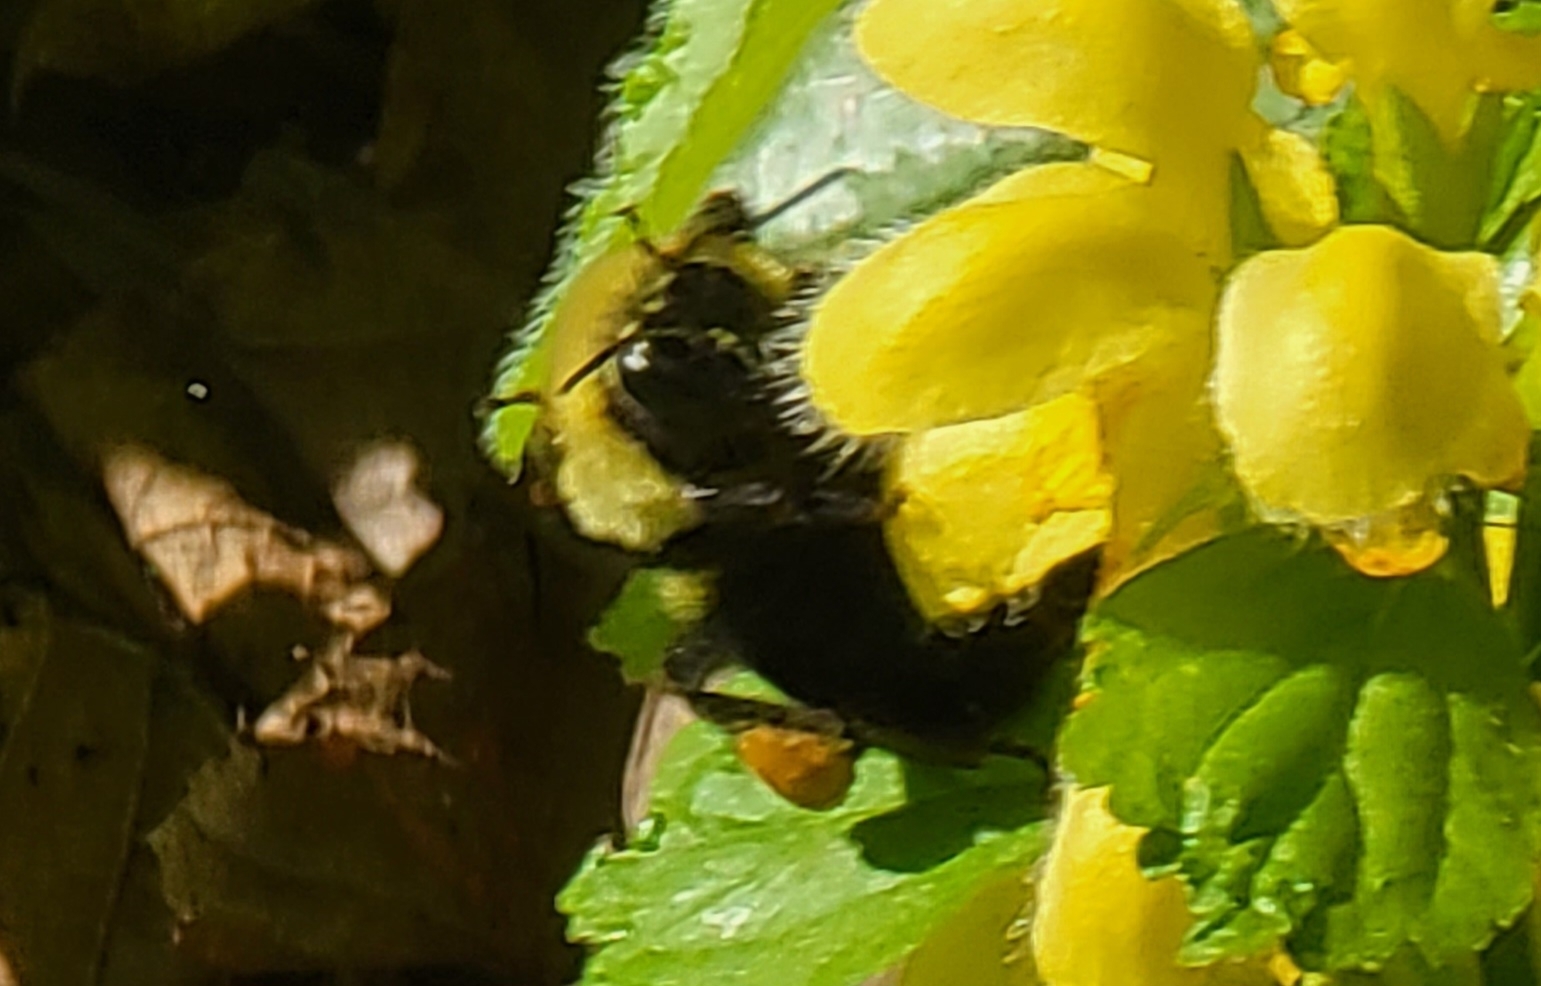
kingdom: Animalia
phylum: Arthropoda
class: Insecta
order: Hymenoptera
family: Apidae
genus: Bombus
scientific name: Bombus
